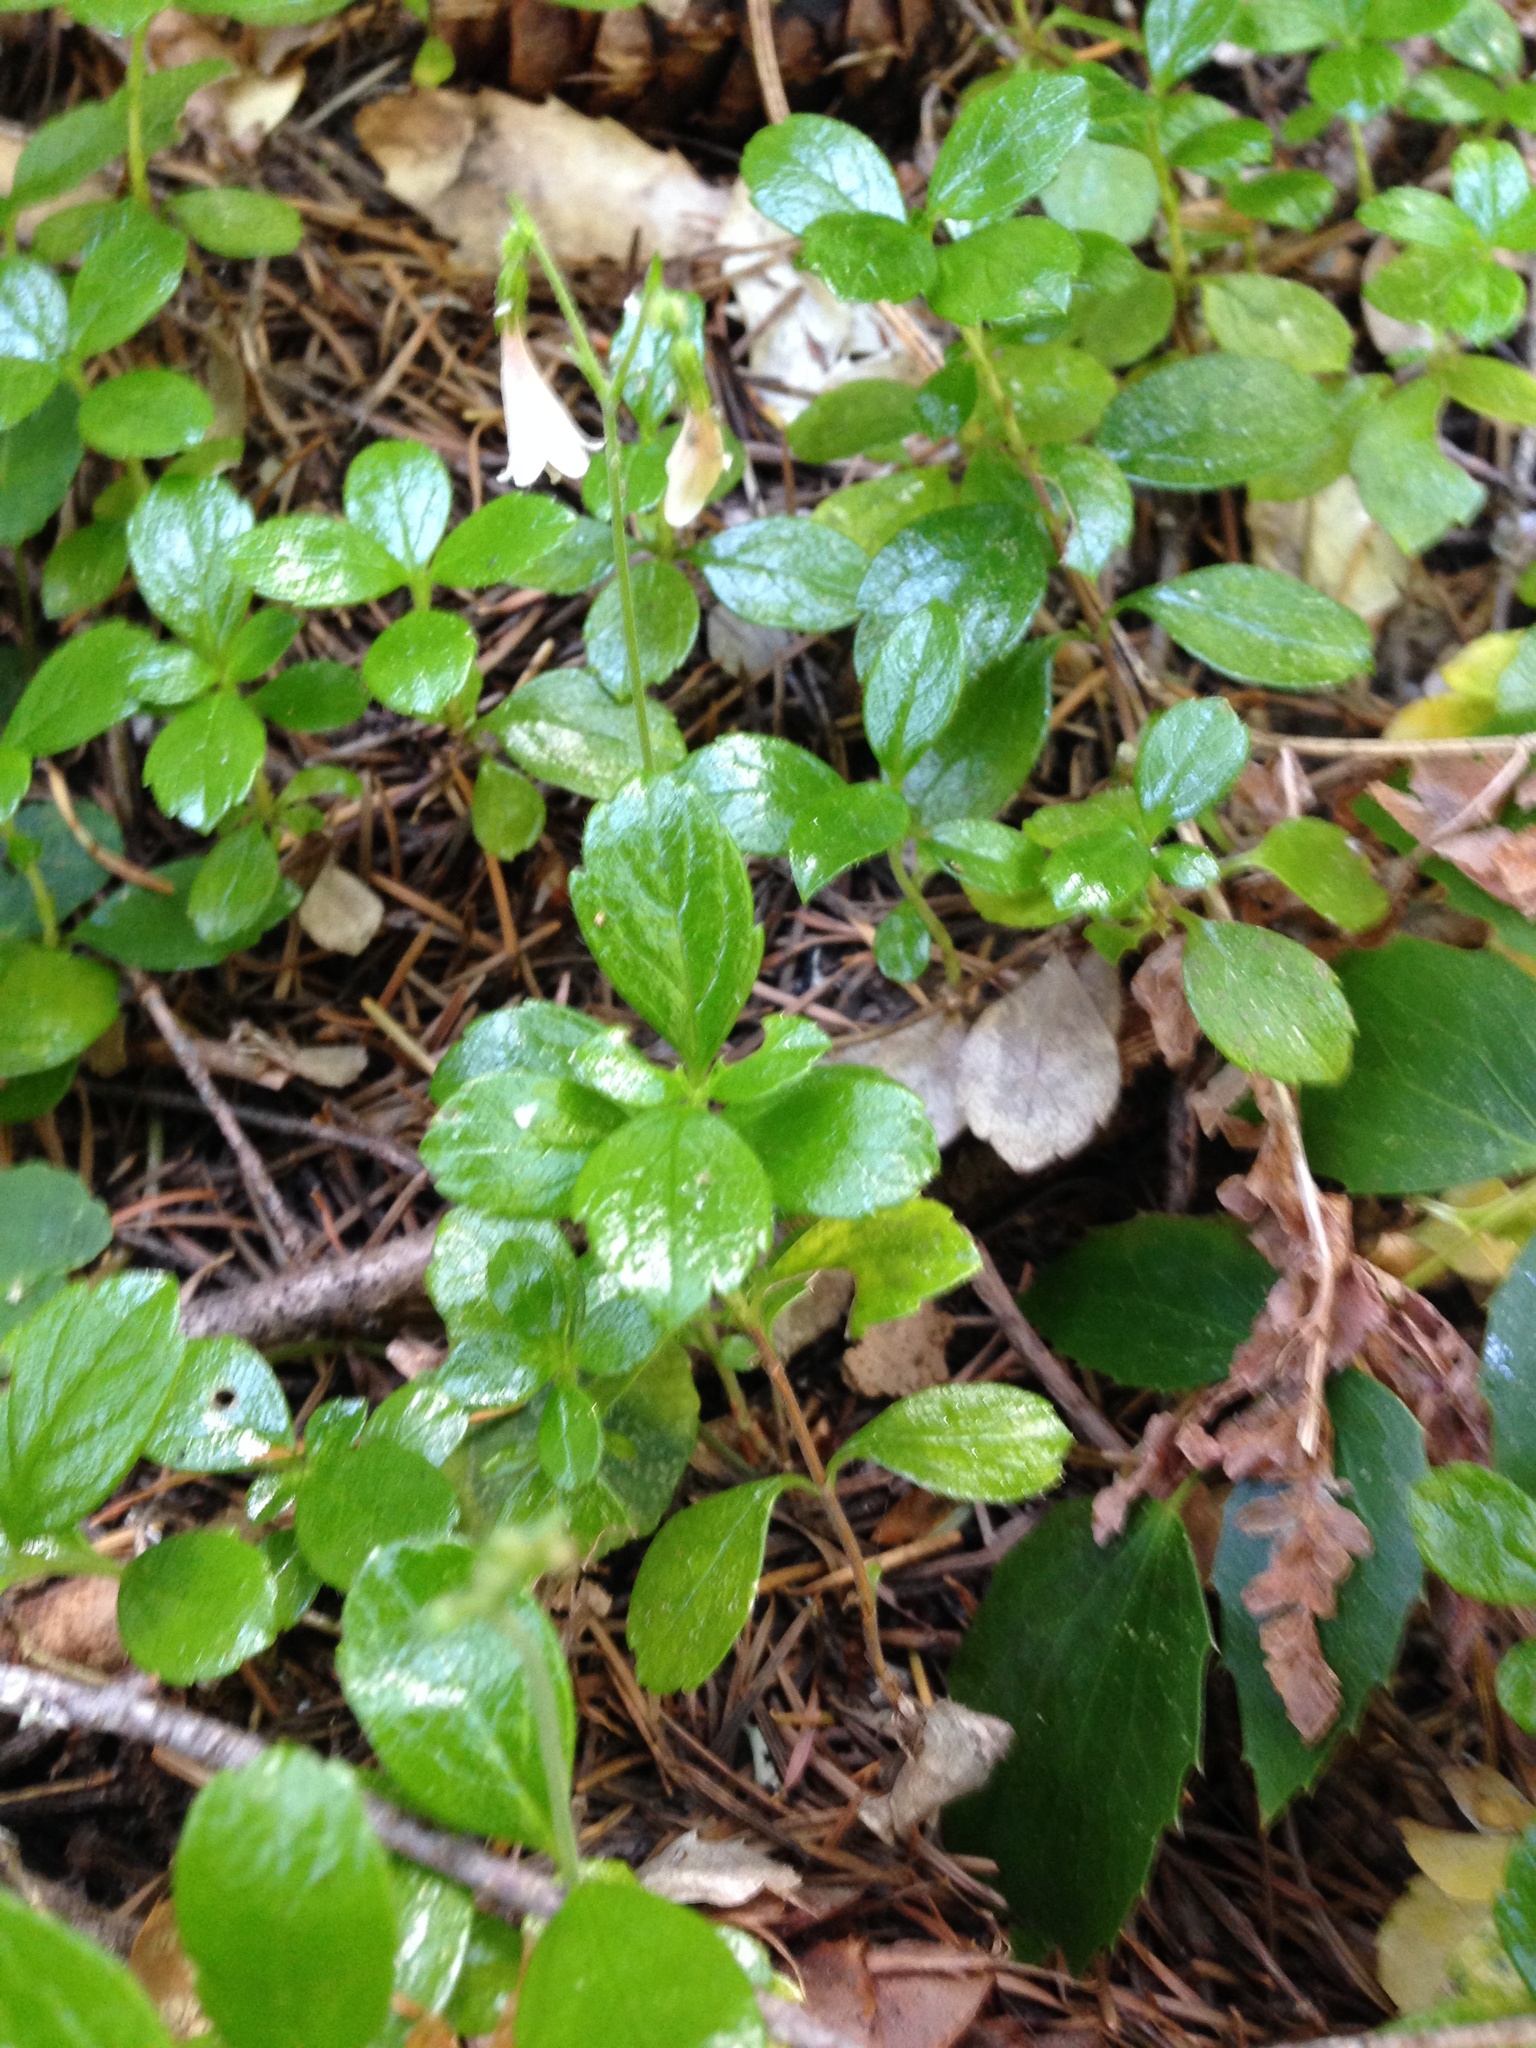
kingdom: Plantae
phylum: Tracheophyta
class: Magnoliopsida
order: Dipsacales
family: Caprifoliaceae
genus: Linnaea
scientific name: Linnaea borealis
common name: Twinflower
